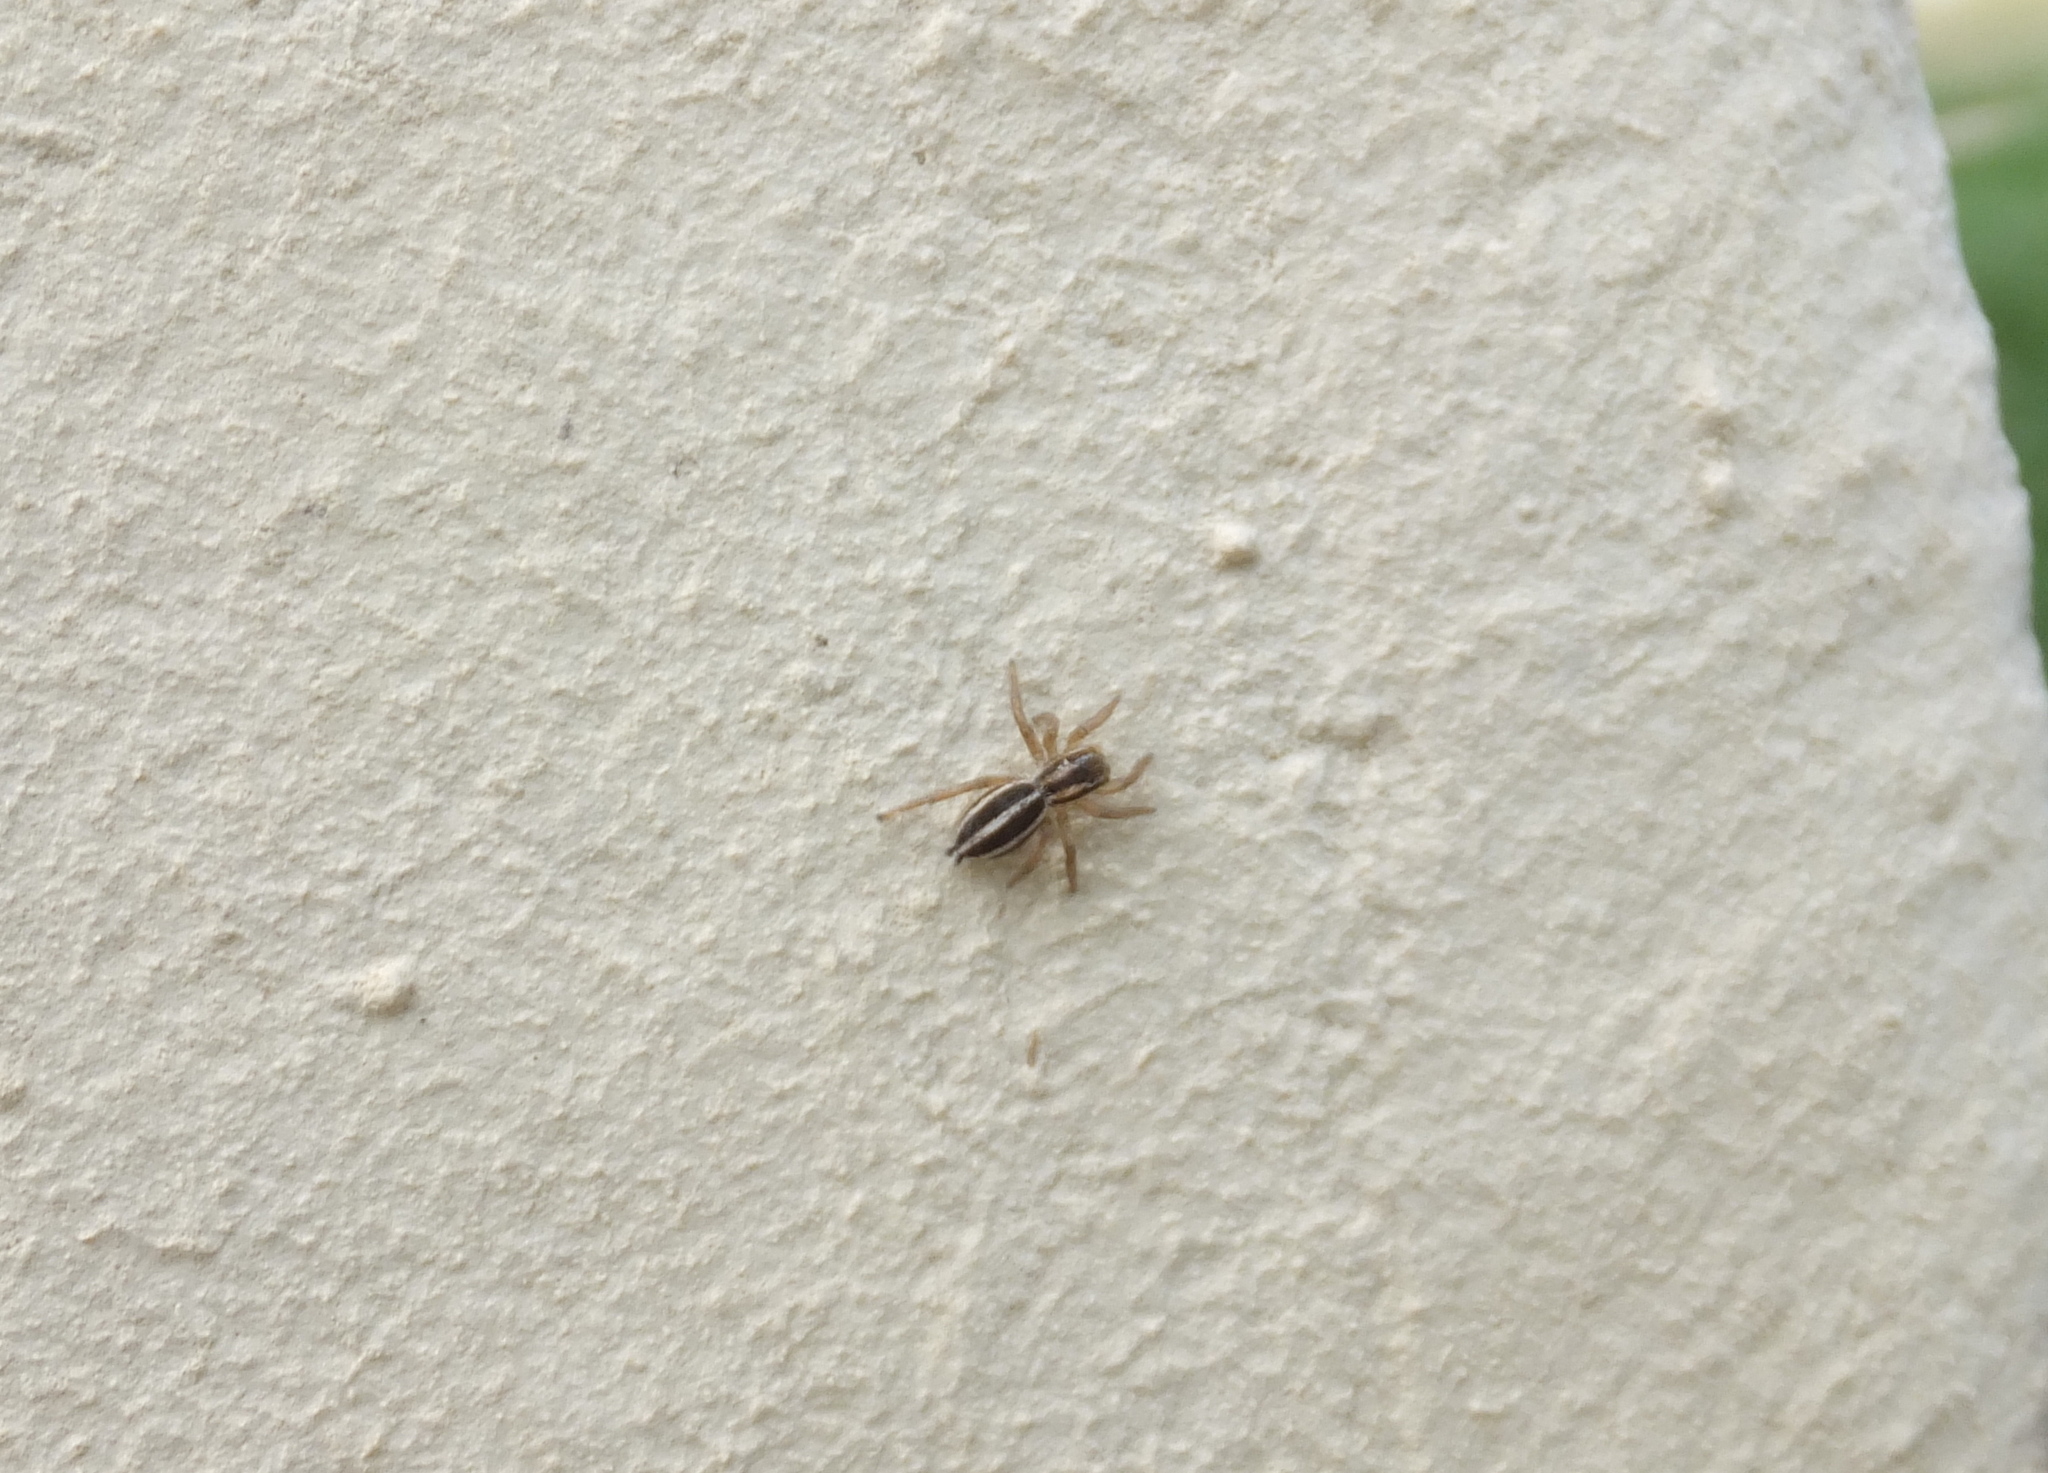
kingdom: Animalia
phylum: Arthropoda
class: Arachnida
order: Araneae
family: Salticidae
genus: Phlegra
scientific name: Phlegra bresnieri
